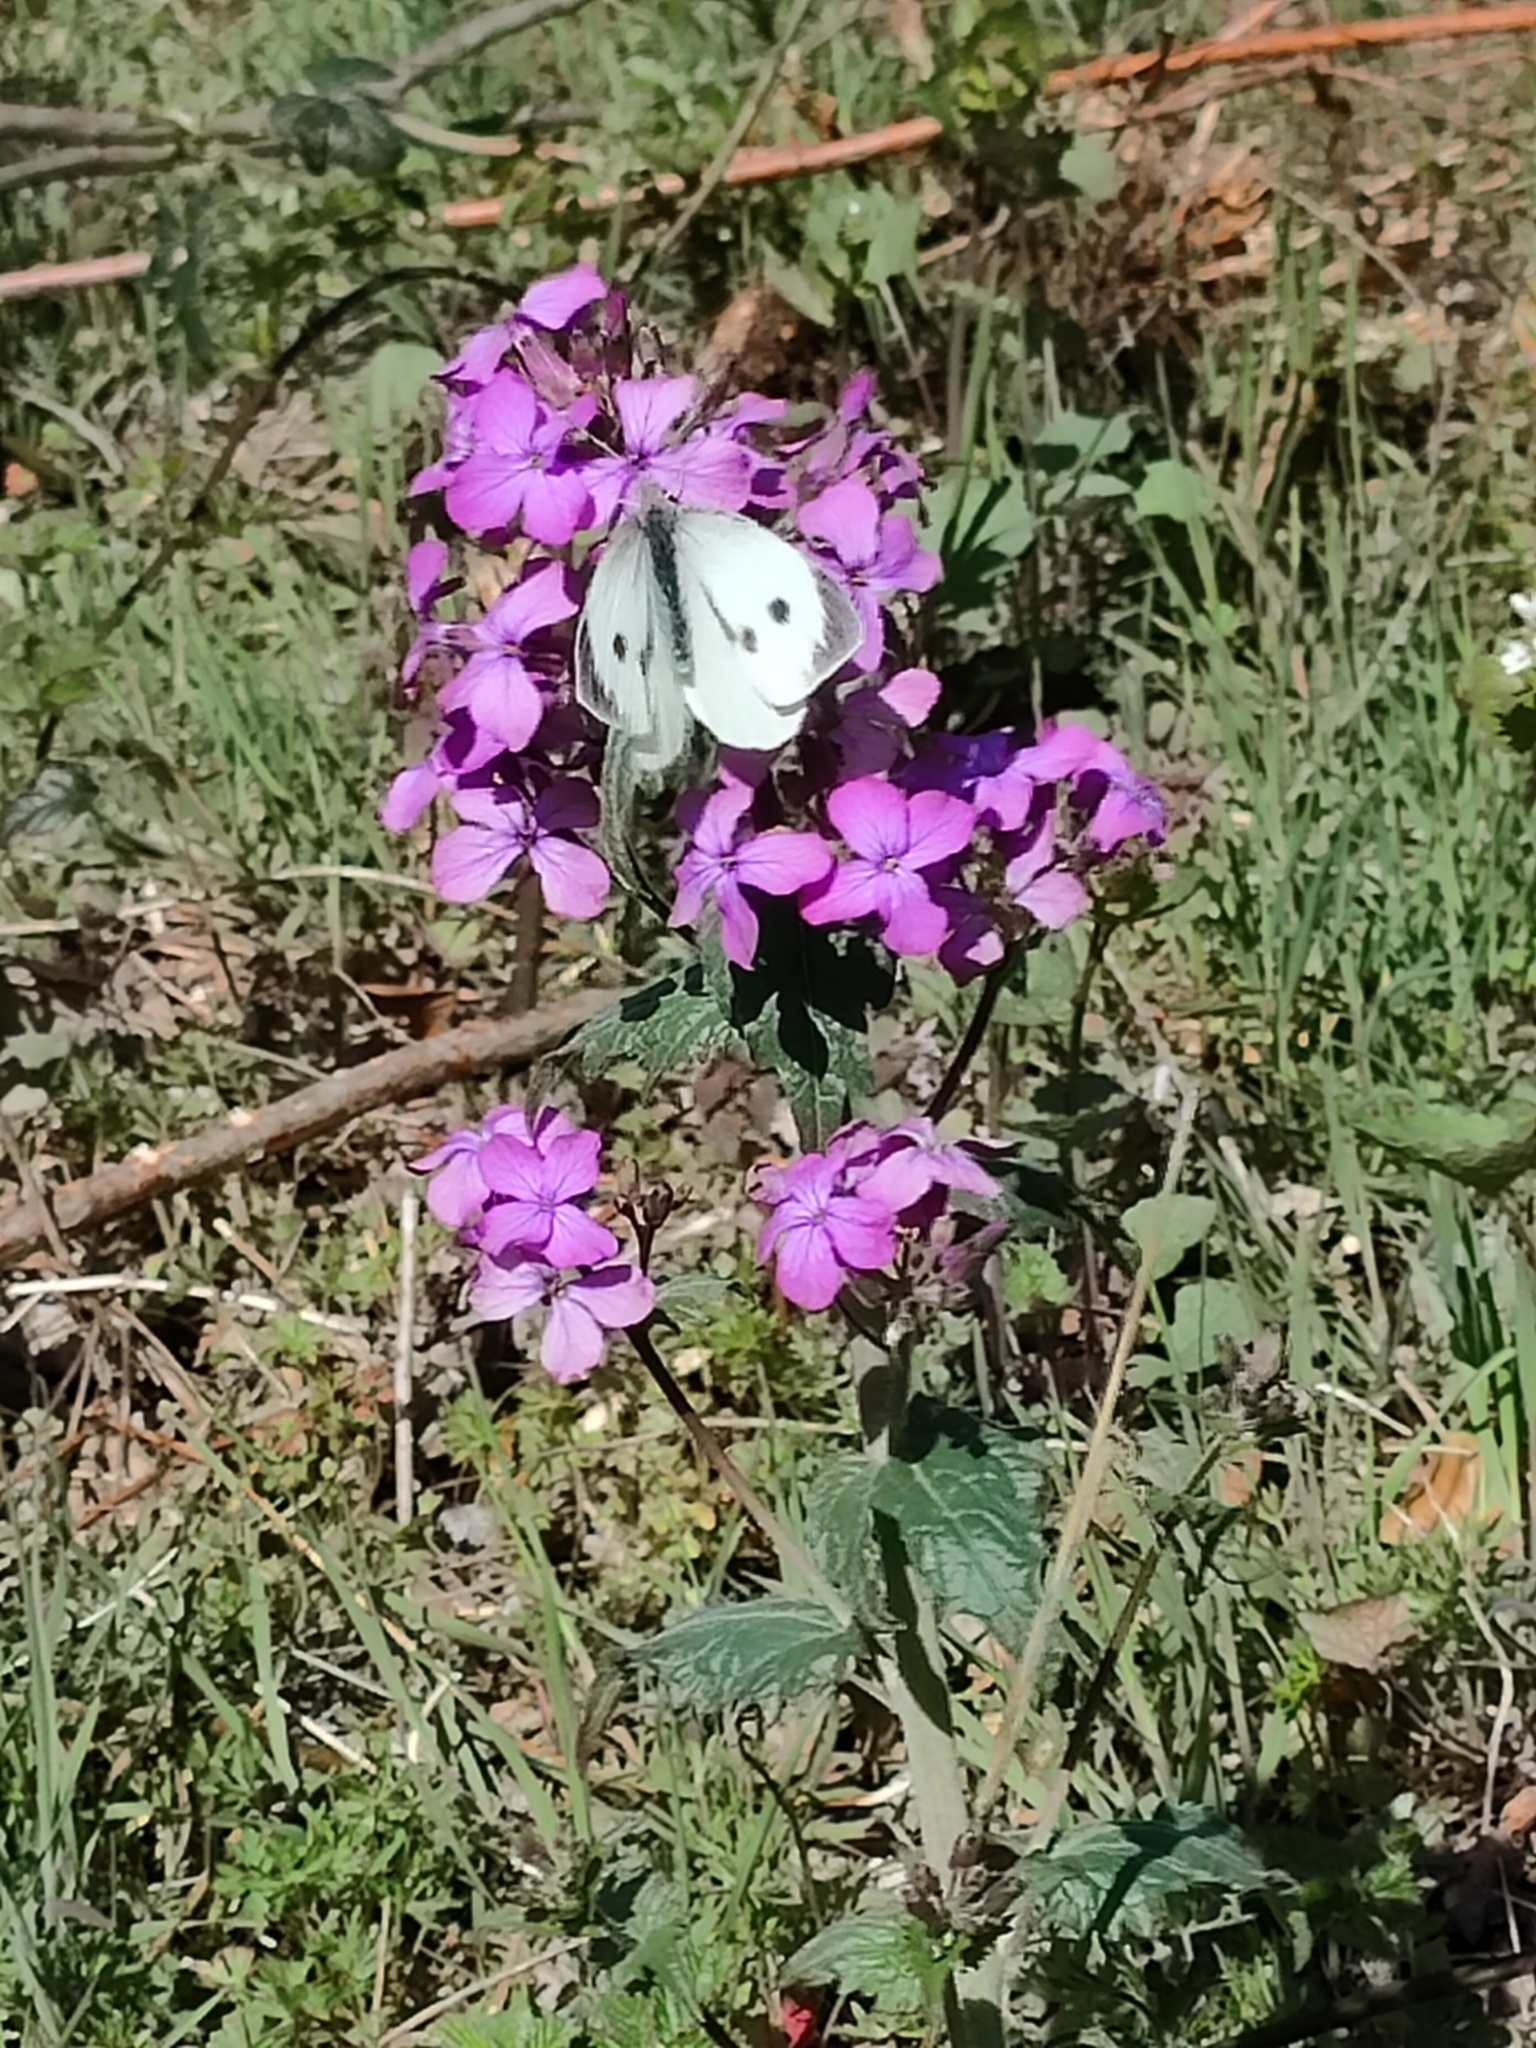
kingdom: Animalia
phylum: Arthropoda
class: Insecta
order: Lepidoptera
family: Pieridae
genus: Pieris
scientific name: Pieris brassicae
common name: Large white
